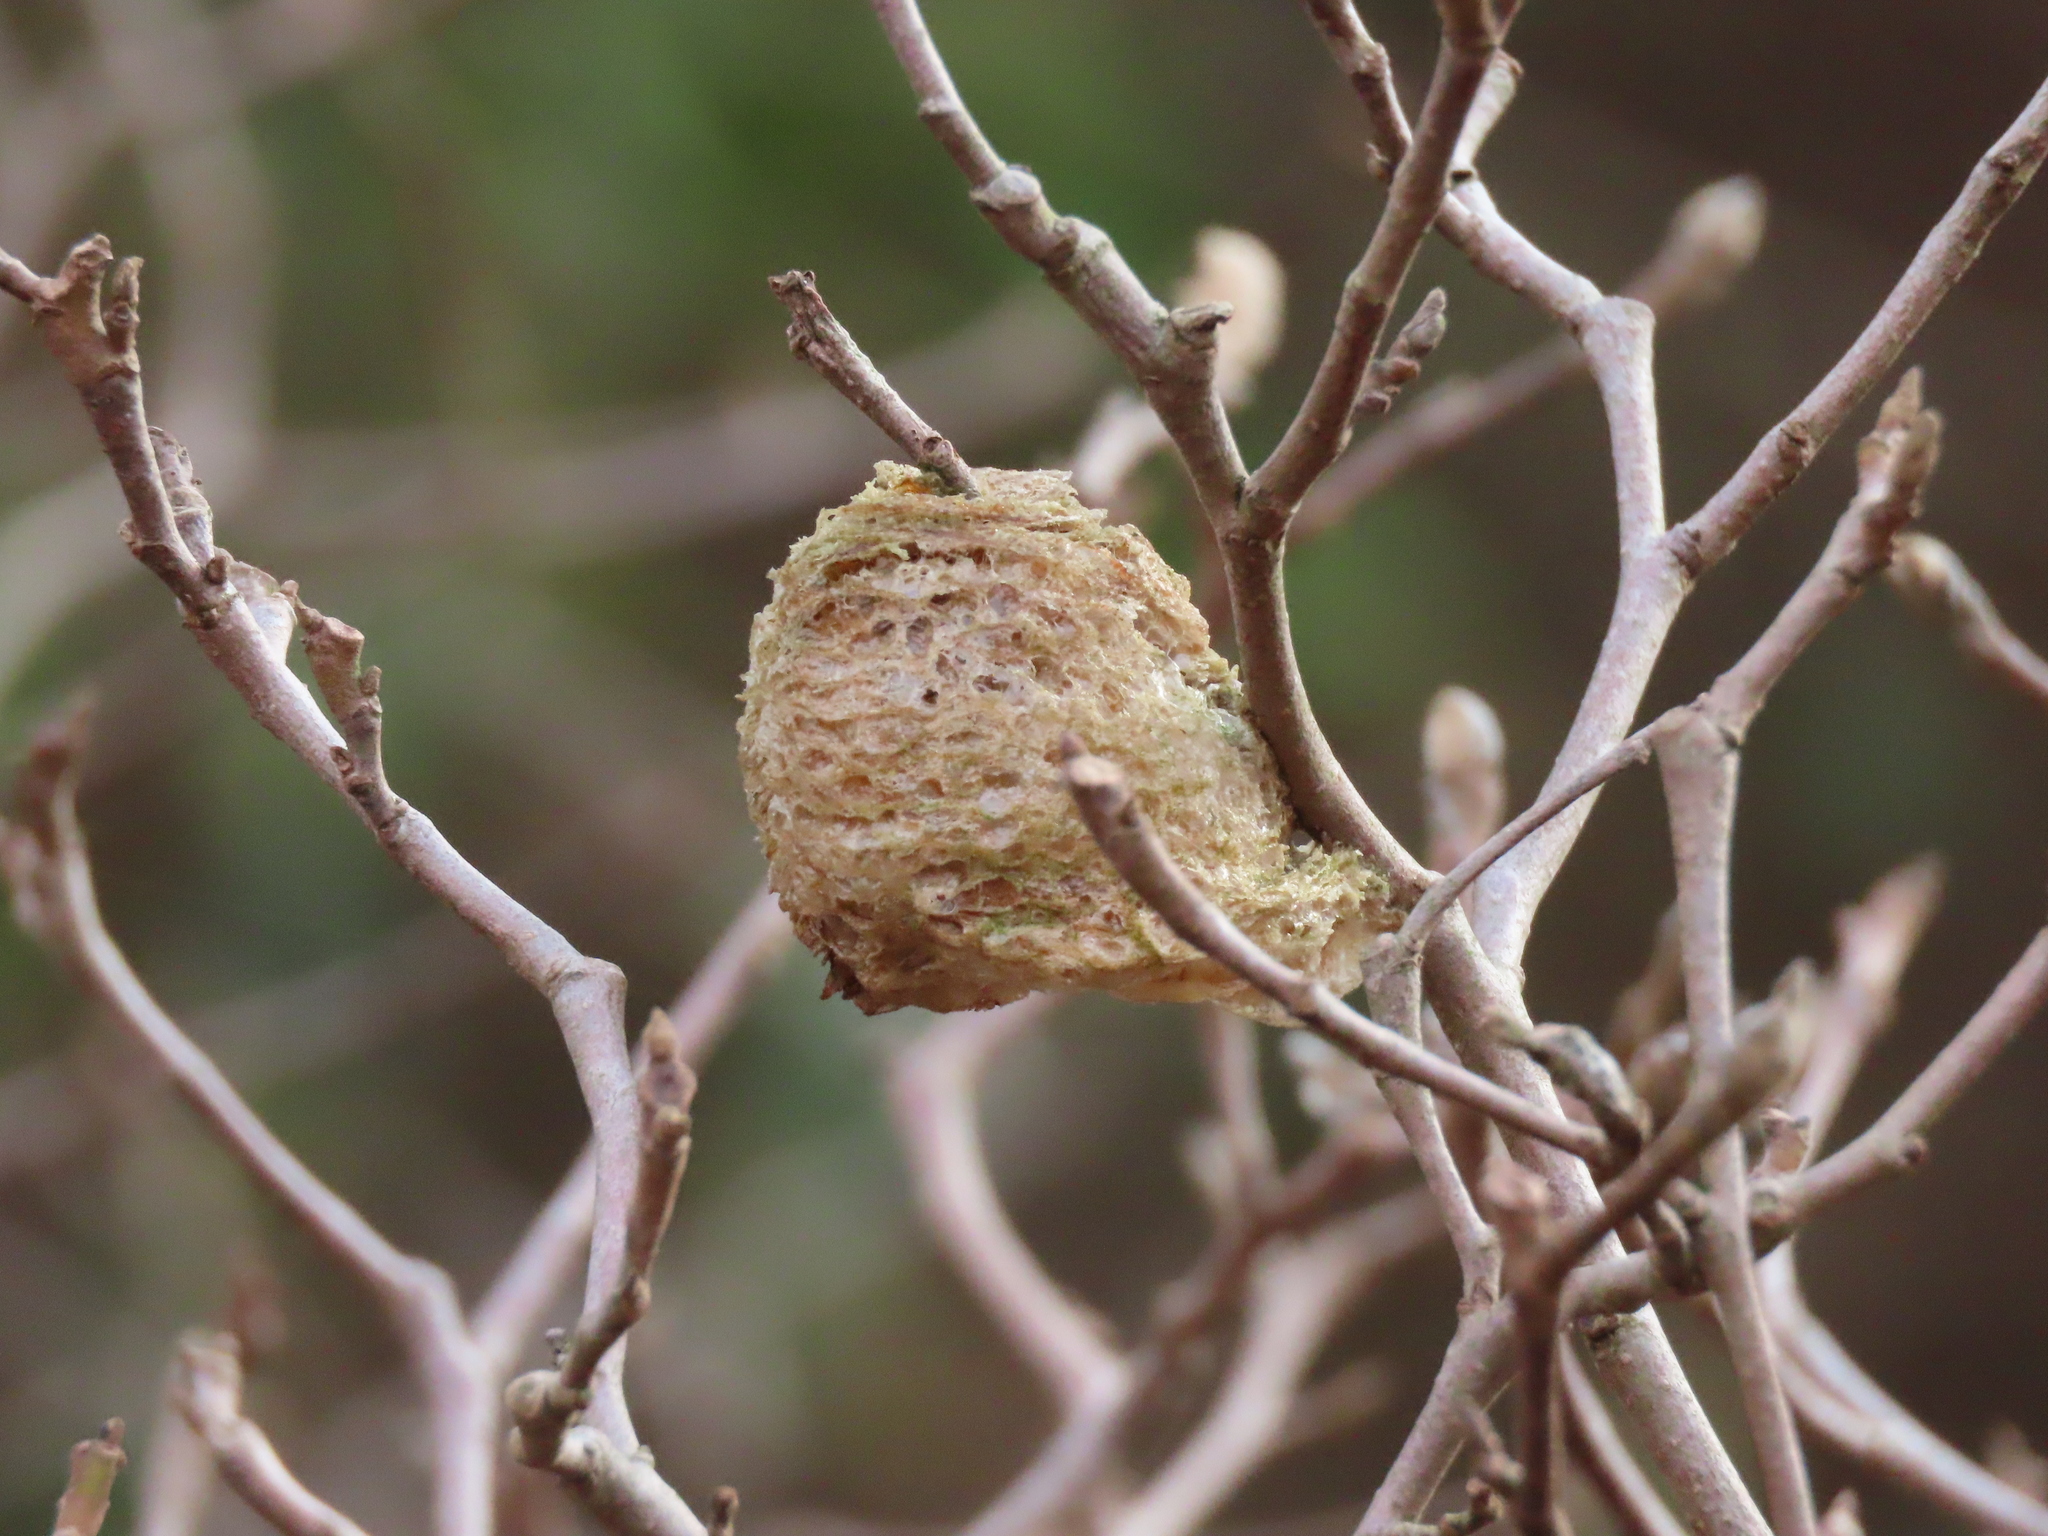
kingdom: Animalia
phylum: Arthropoda
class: Insecta
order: Mantodea
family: Mantidae
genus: Tenodera
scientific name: Tenodera sinensis
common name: Chinese mantis
